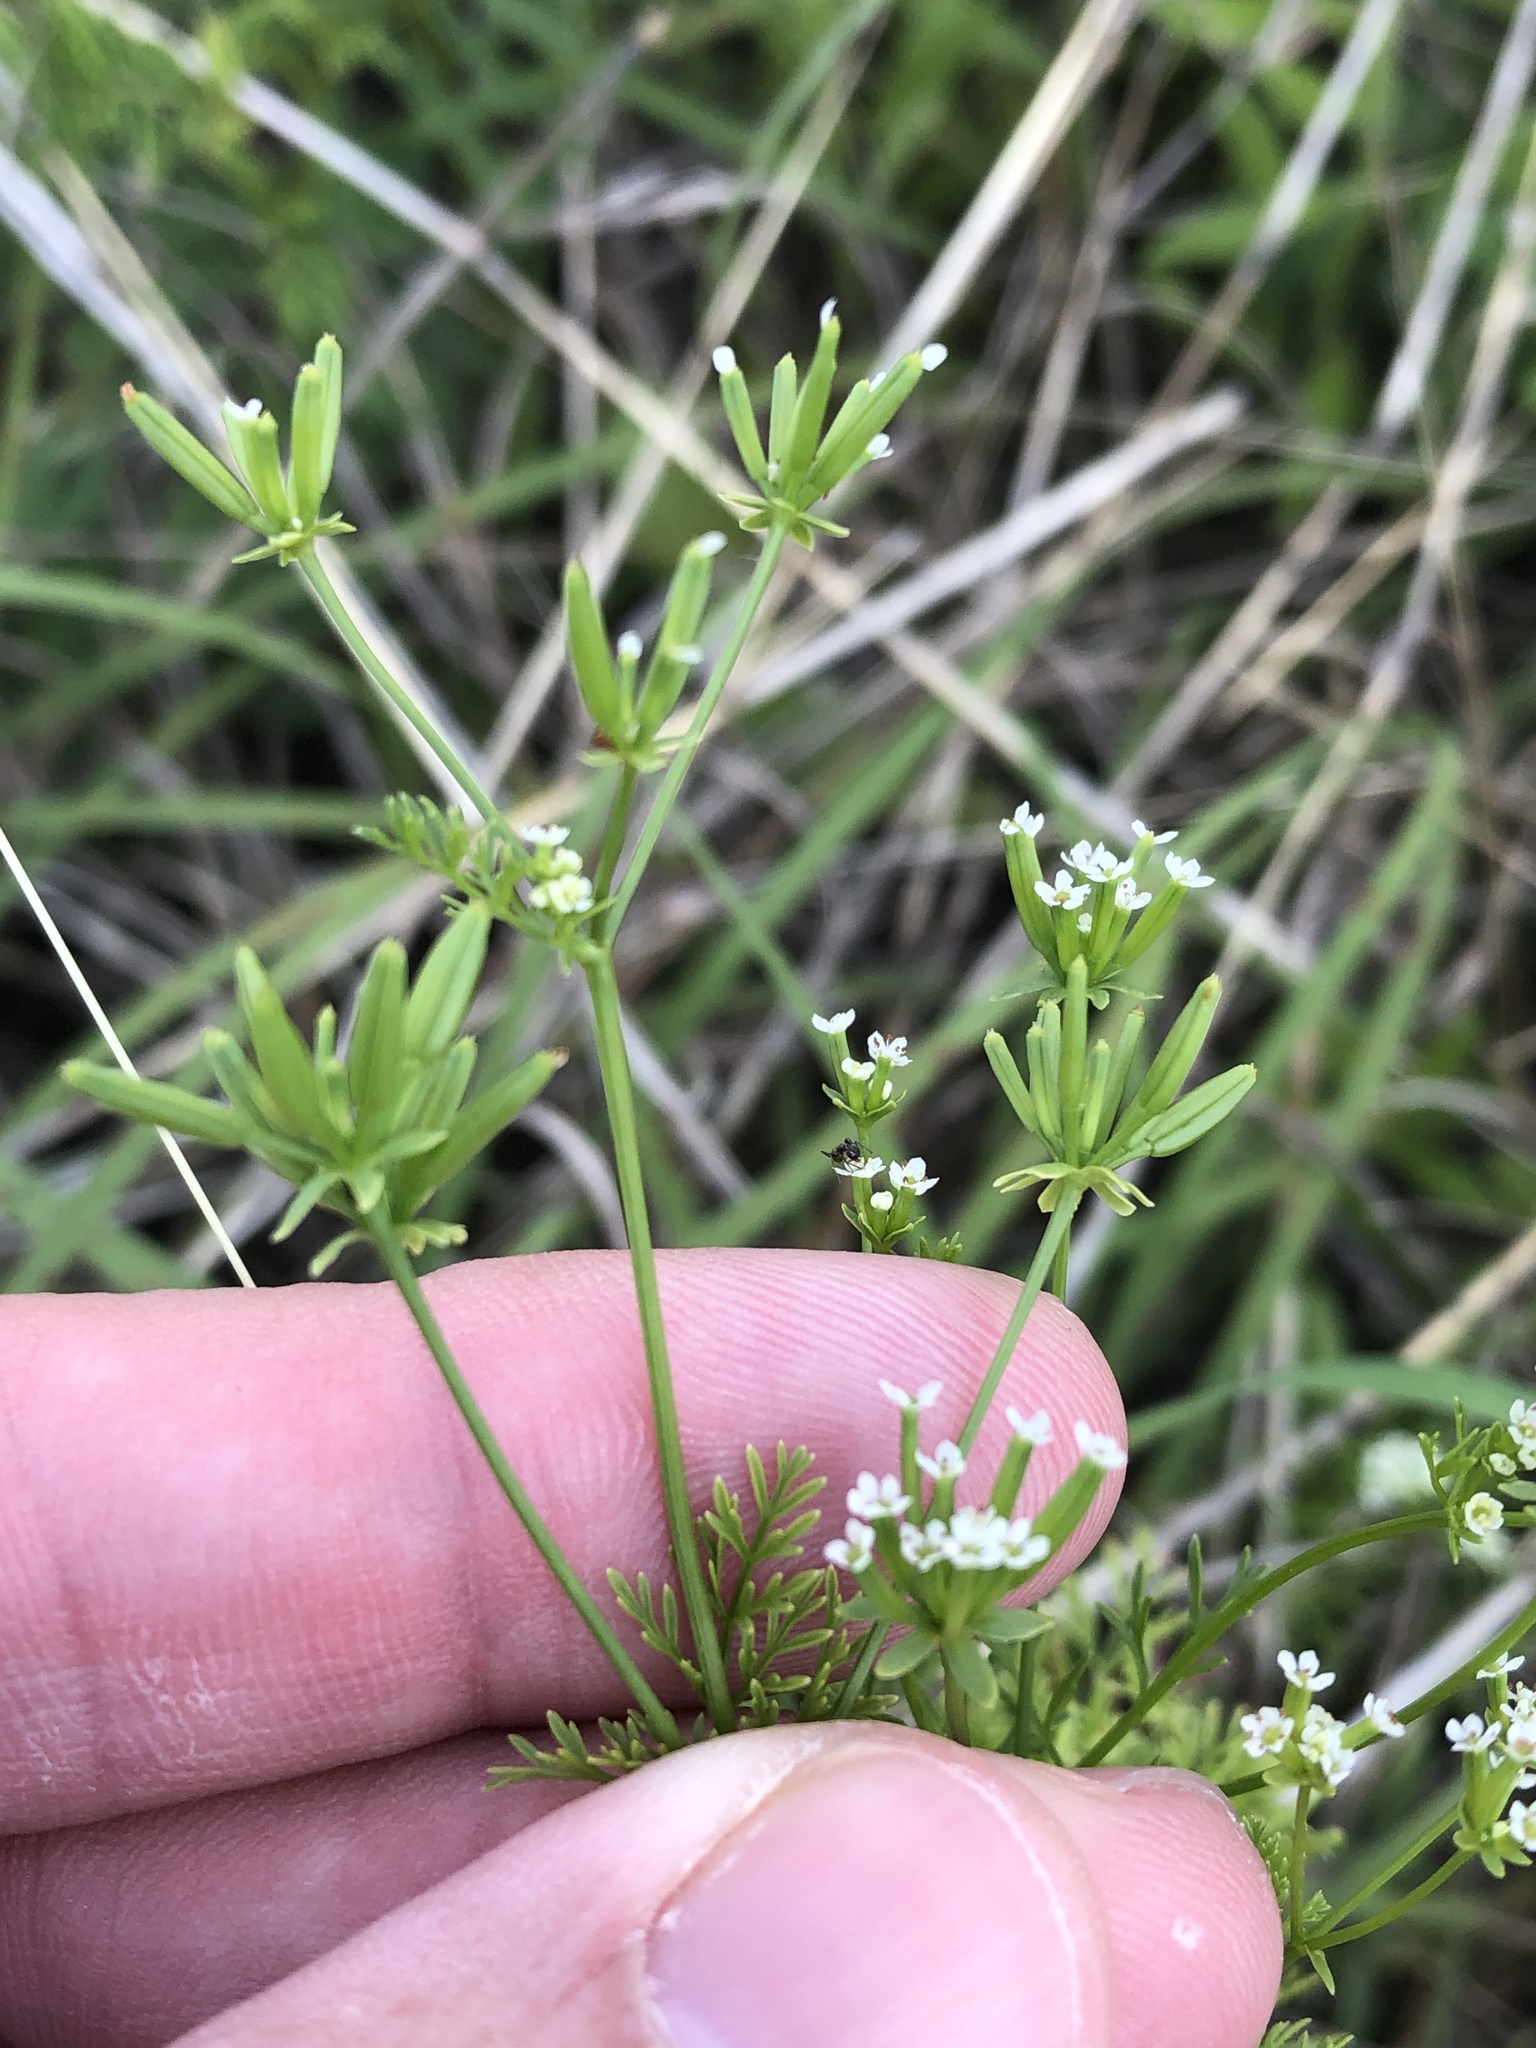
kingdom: Plantae
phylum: Tracheophyta
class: Magnoliopsida
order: Apiales
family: Apiaceae
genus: Chaerophyllum
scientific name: Chaerophyllum tainturieri
